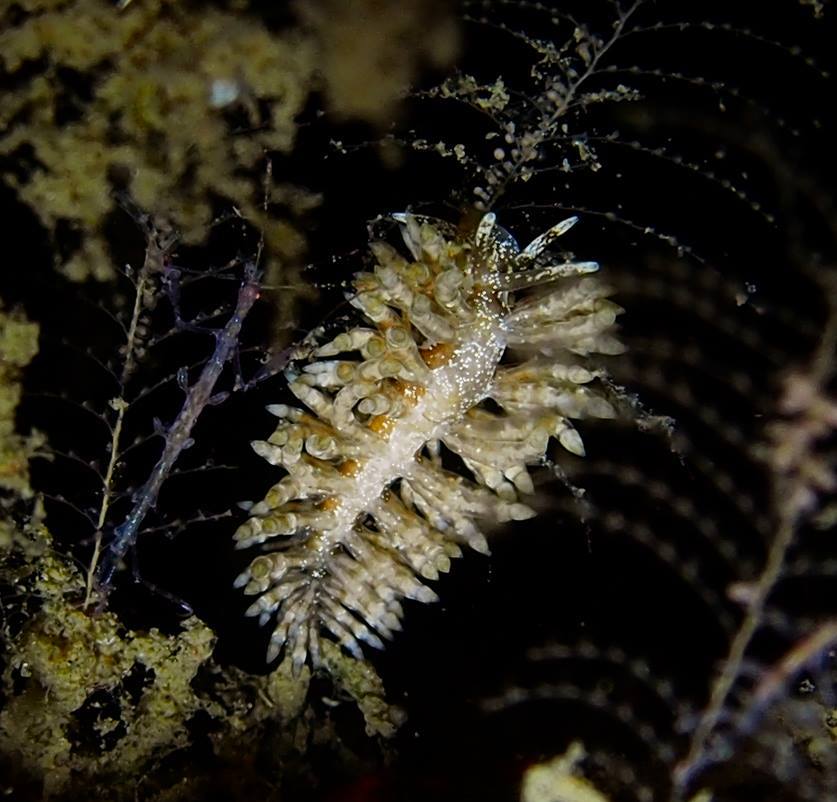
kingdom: Animalia
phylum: Mollusca
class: Gastropoda
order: Nudibranchia
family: Eubranchidae
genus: Eubranchus
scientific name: Eubranchus vittatus
